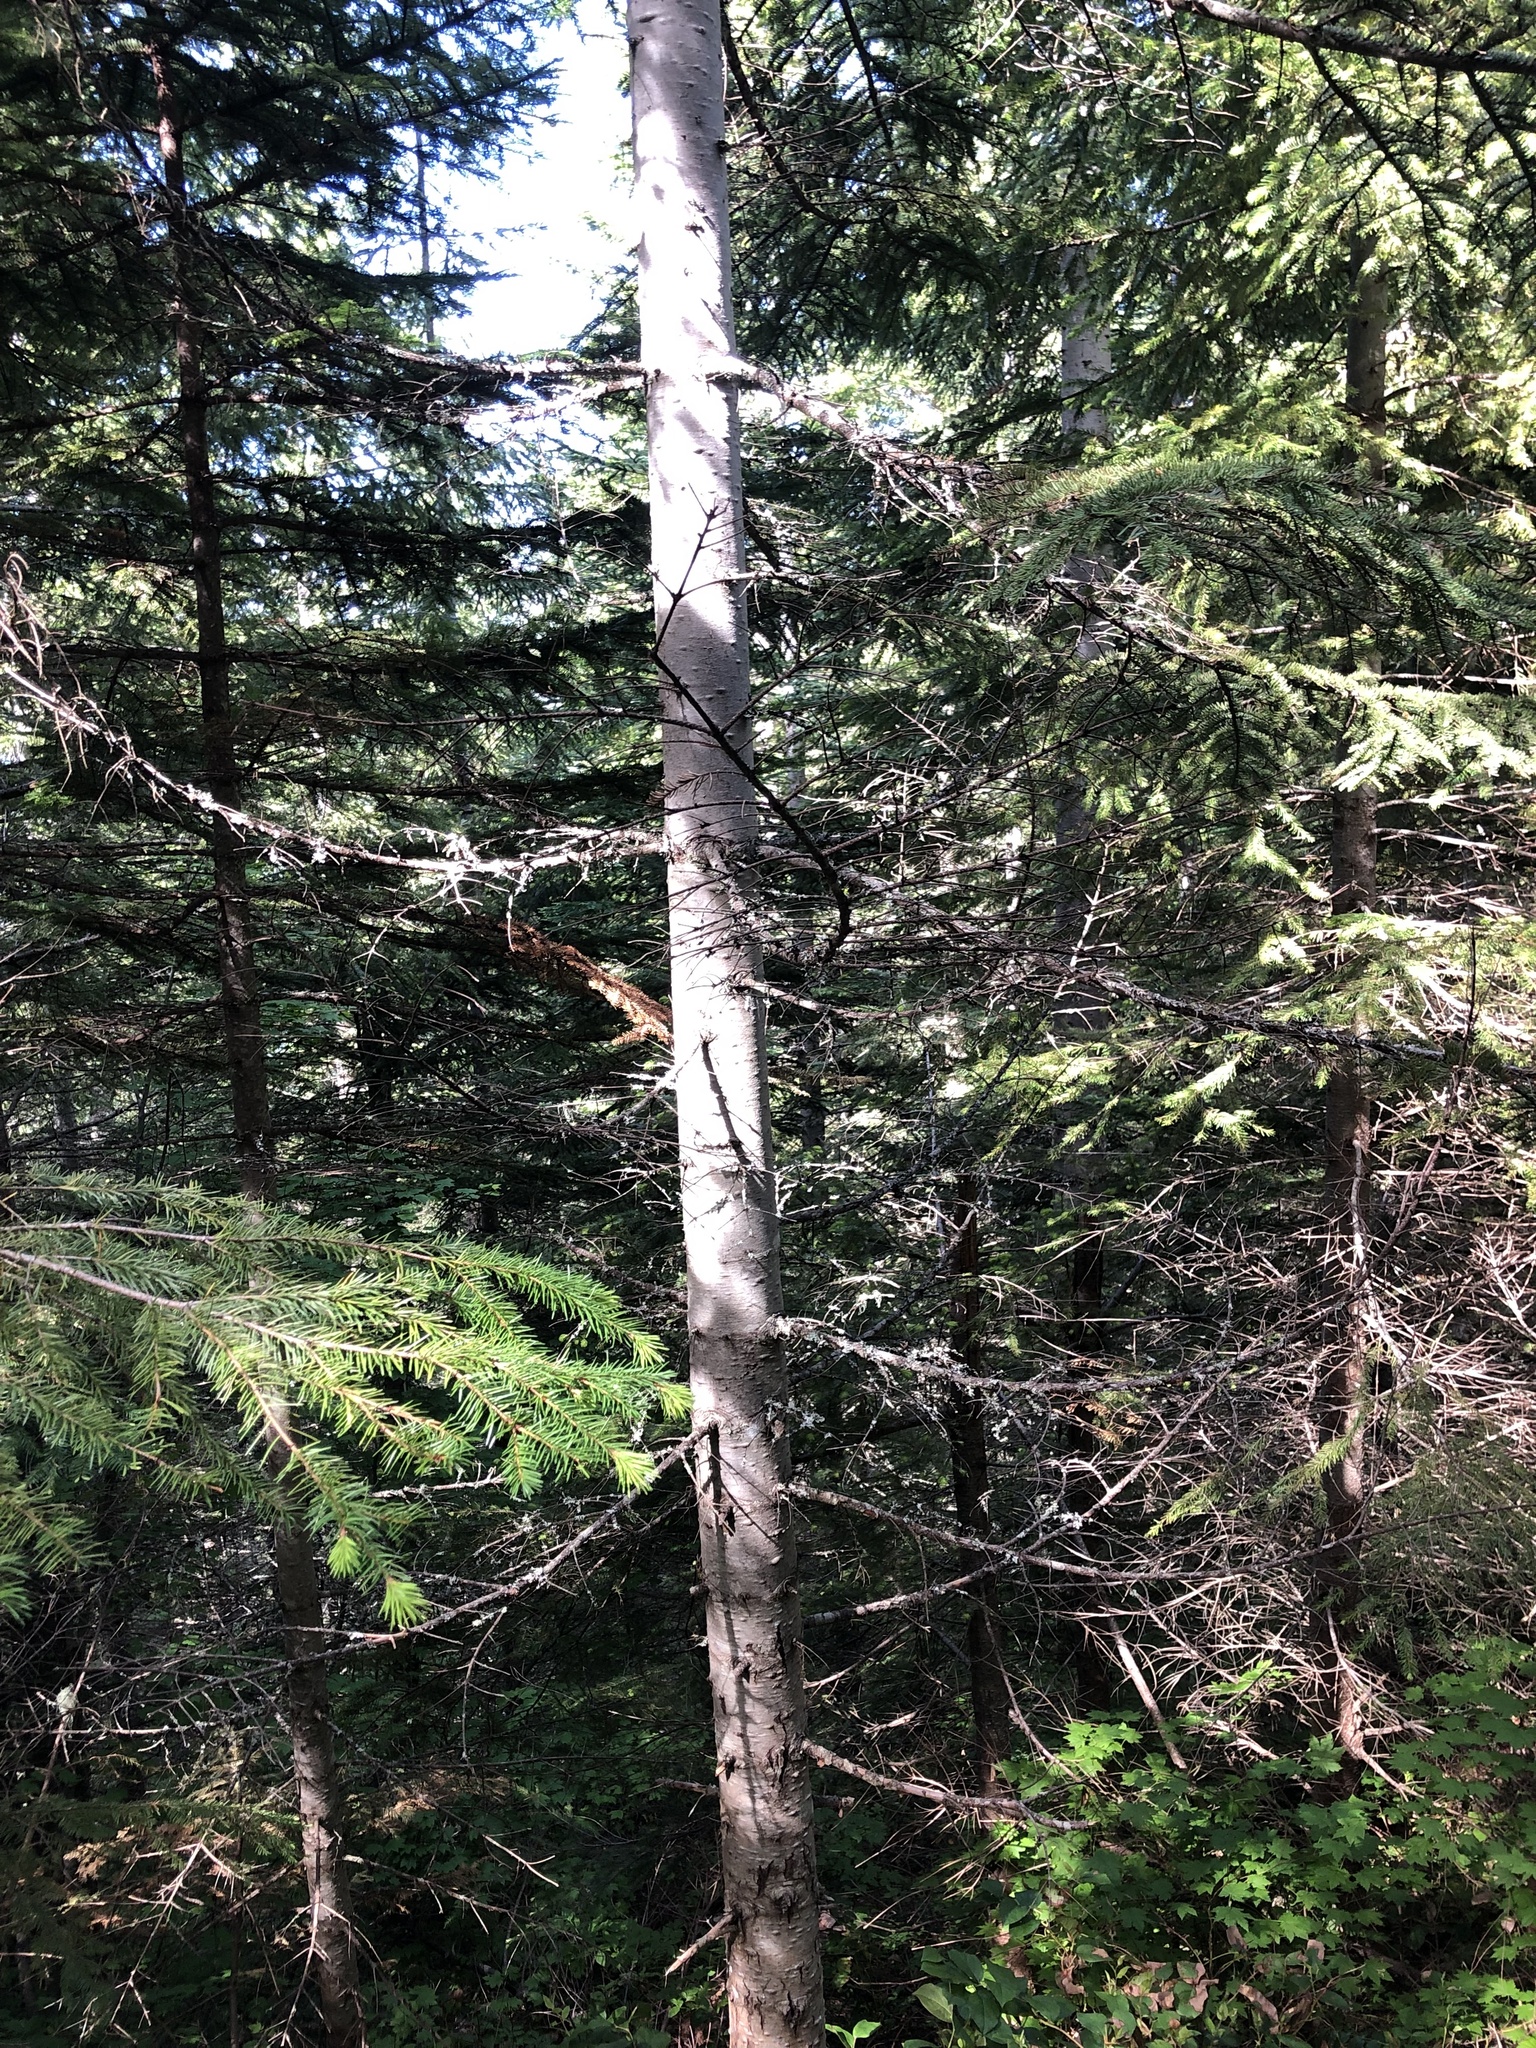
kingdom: Plantae
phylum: Tracheophyta
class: Pinopsida
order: Pinales
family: Pinaceae
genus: Abies
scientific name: Abies procera
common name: Noble fir
